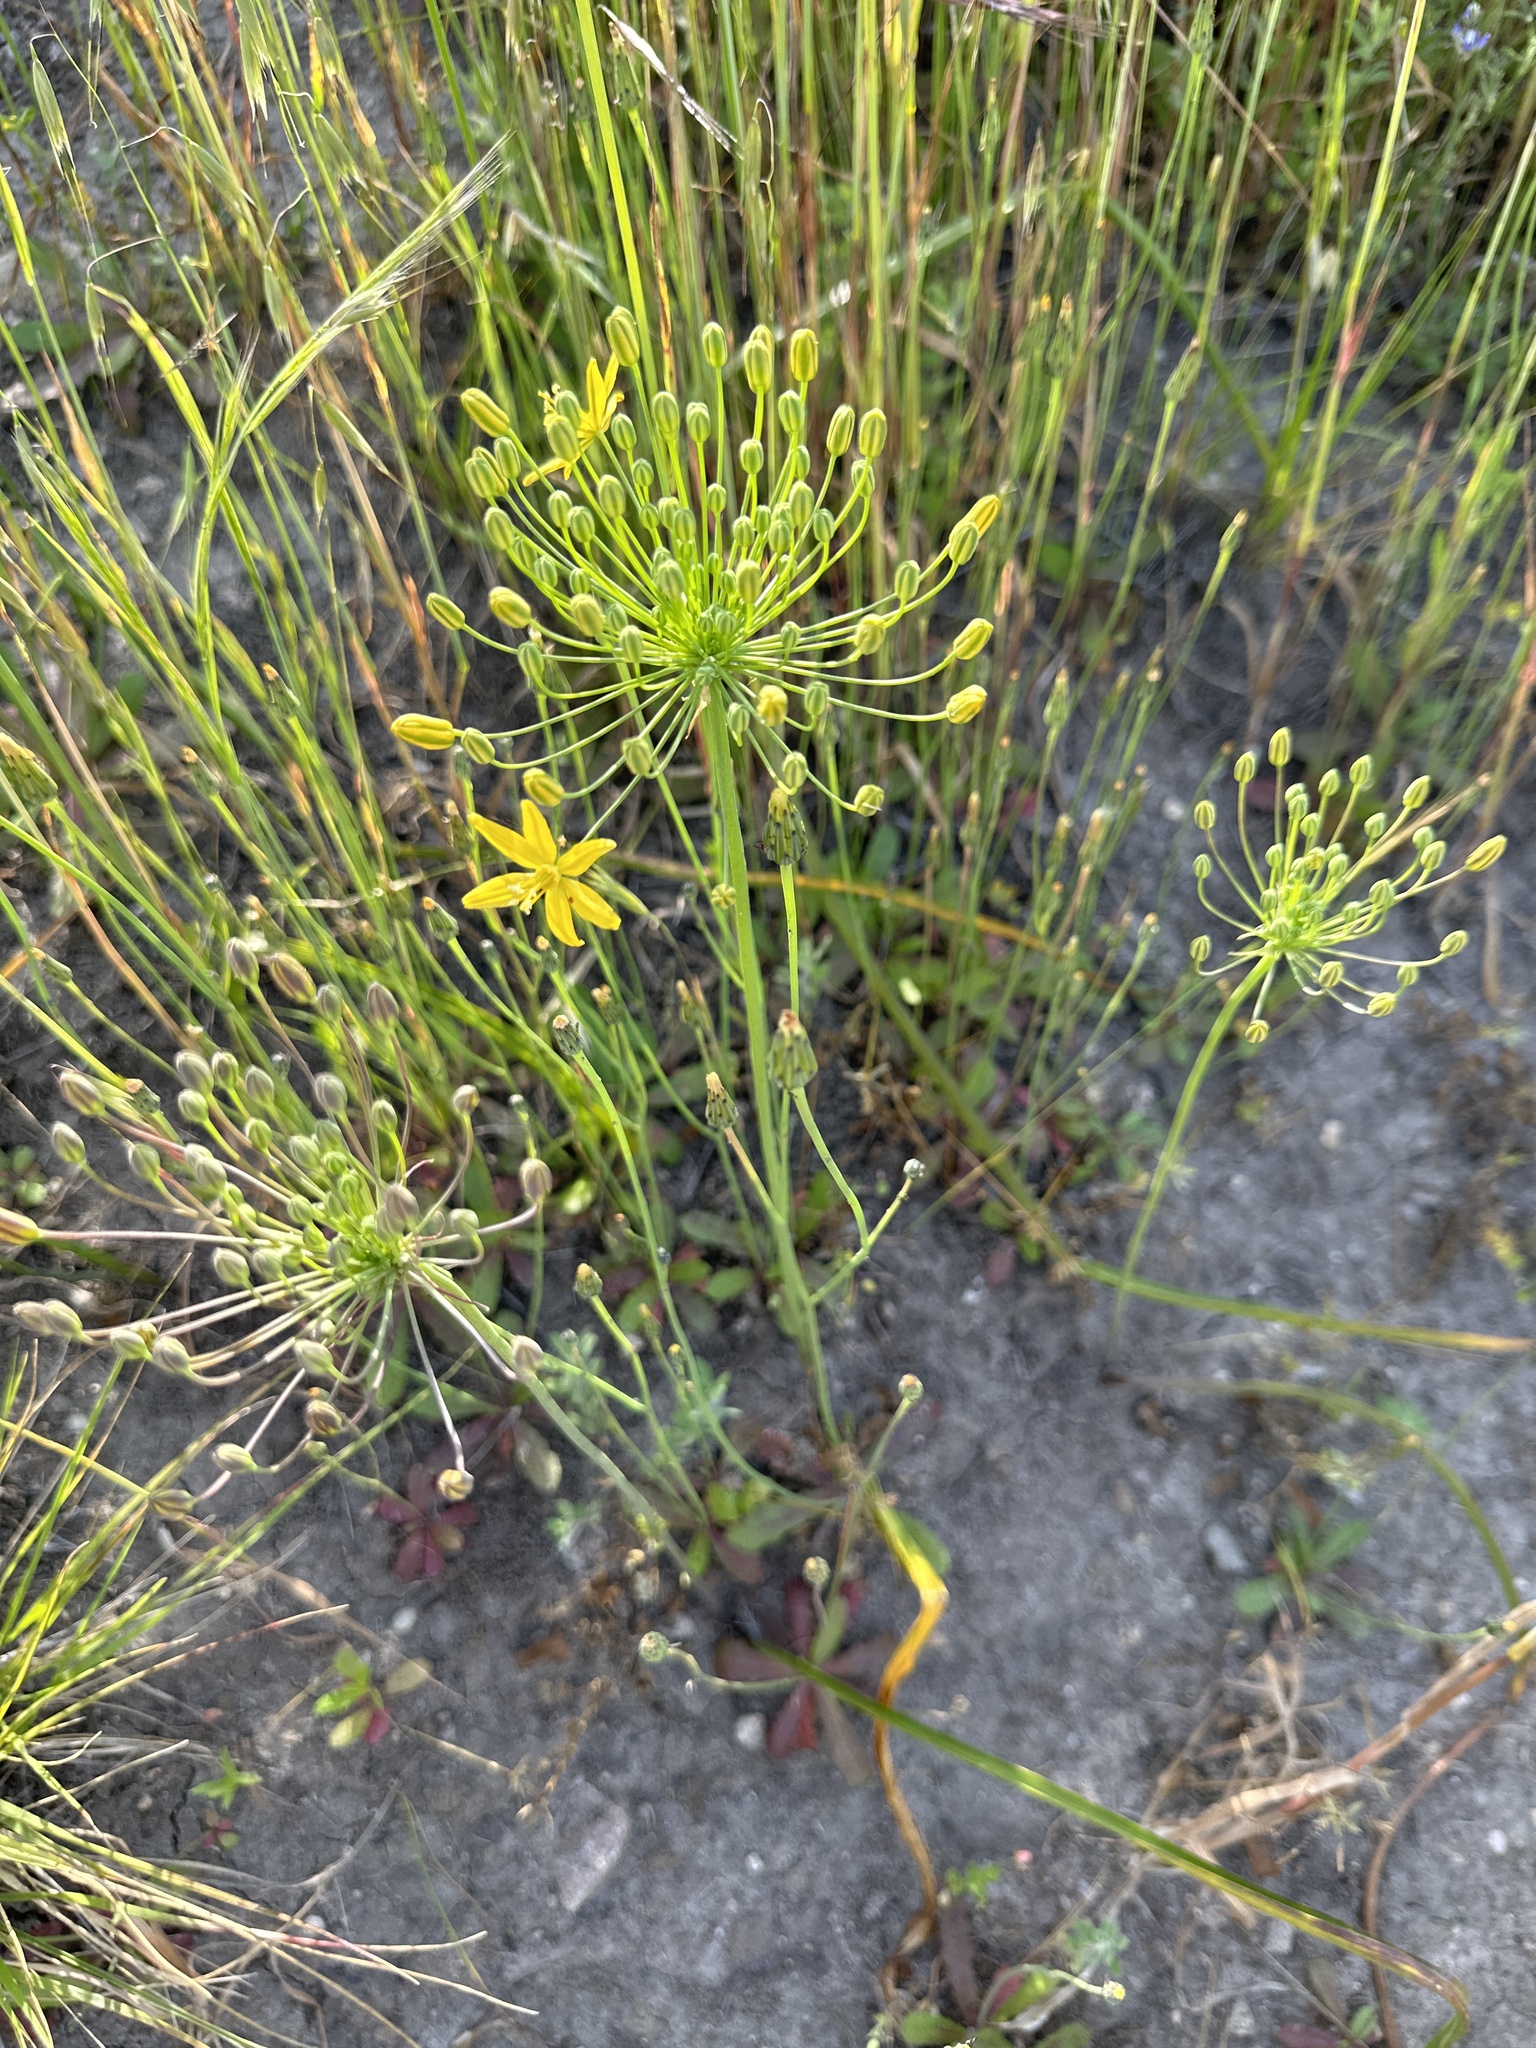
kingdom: Plantae
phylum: Tracheophyta
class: Liliopsida
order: Asparagales
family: Asparagaceae
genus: Bloomeria
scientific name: Bloomeria crocea
